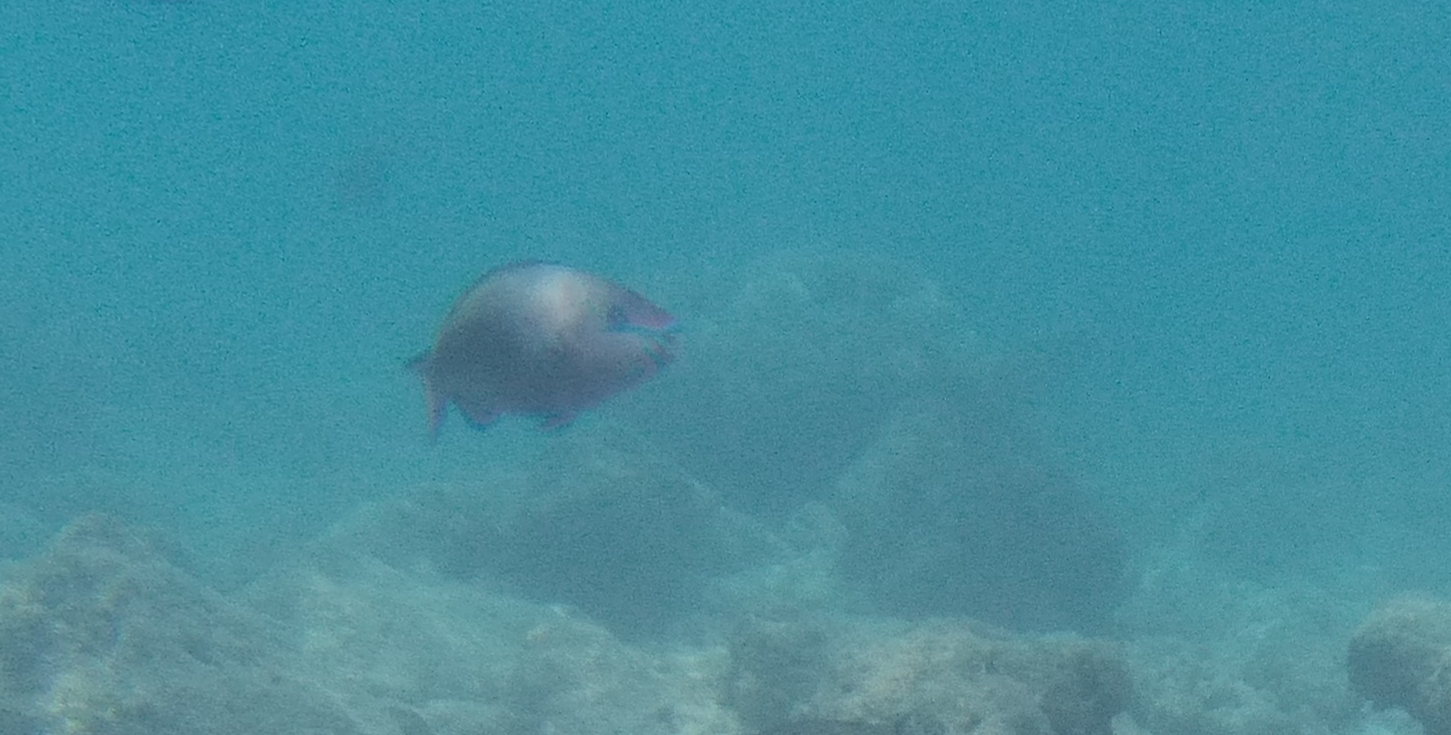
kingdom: Animalia
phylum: Chordata
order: Perciformes
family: Scaridae
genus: Scarus
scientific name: Scarus psittacus
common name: Palenose parrotfish
